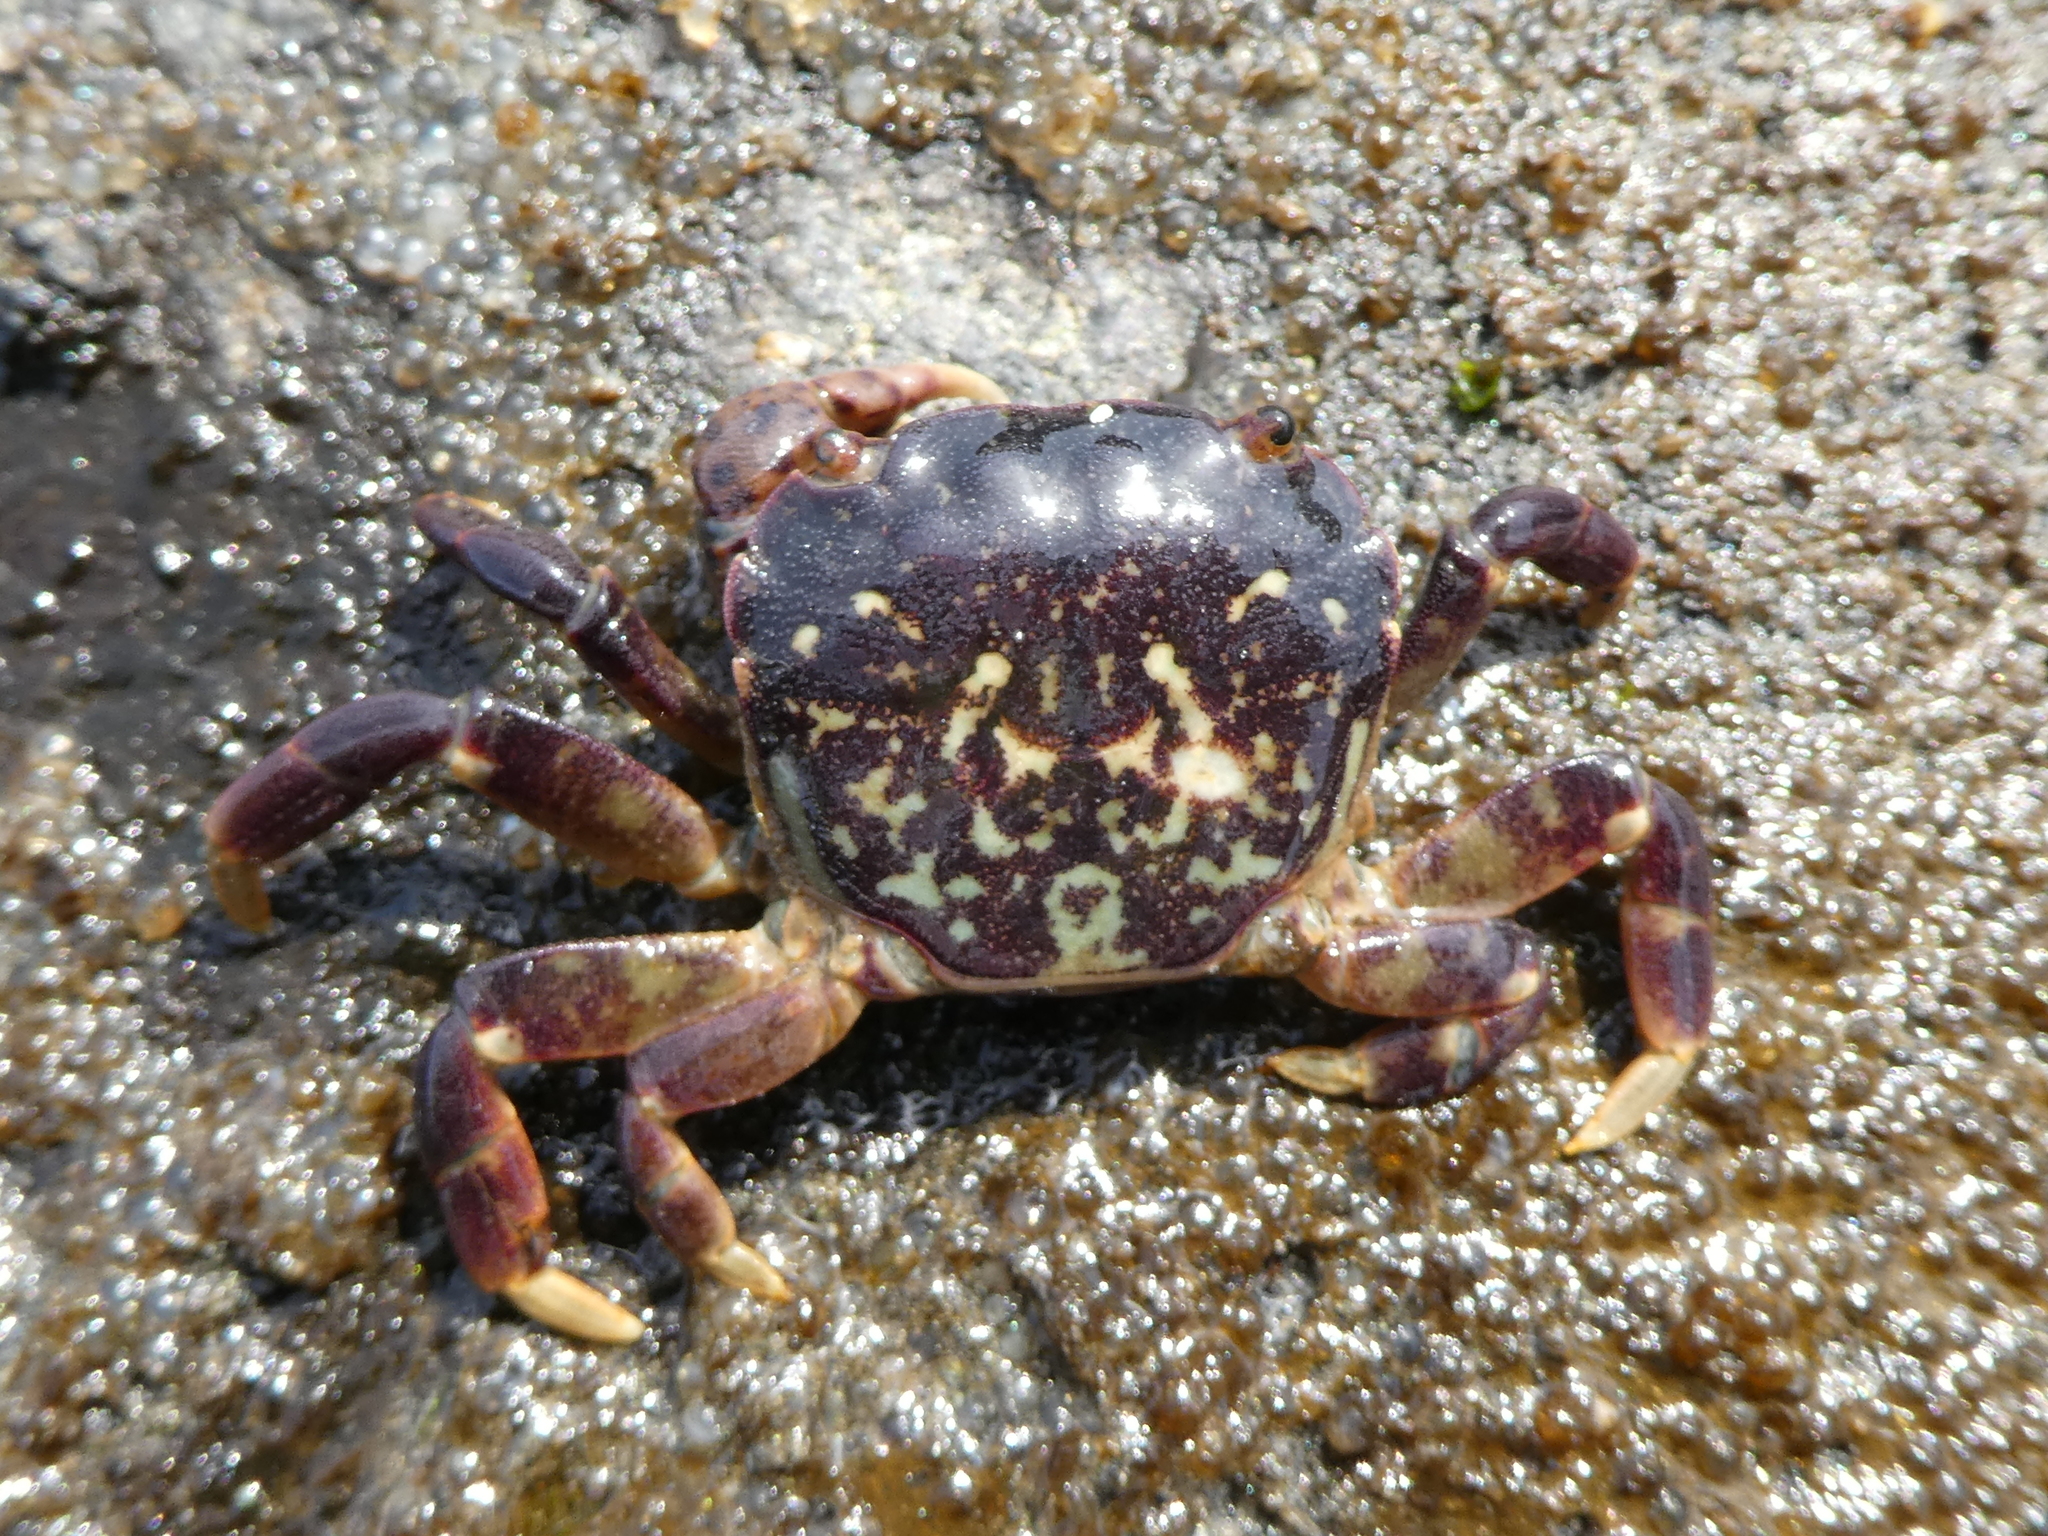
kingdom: Animalia
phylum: Arthropoda
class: Malacostraca
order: Decapoda
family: Varunidae
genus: Hemigrapsus
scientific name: Hemigrapsus nudus
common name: Purple shore crab
